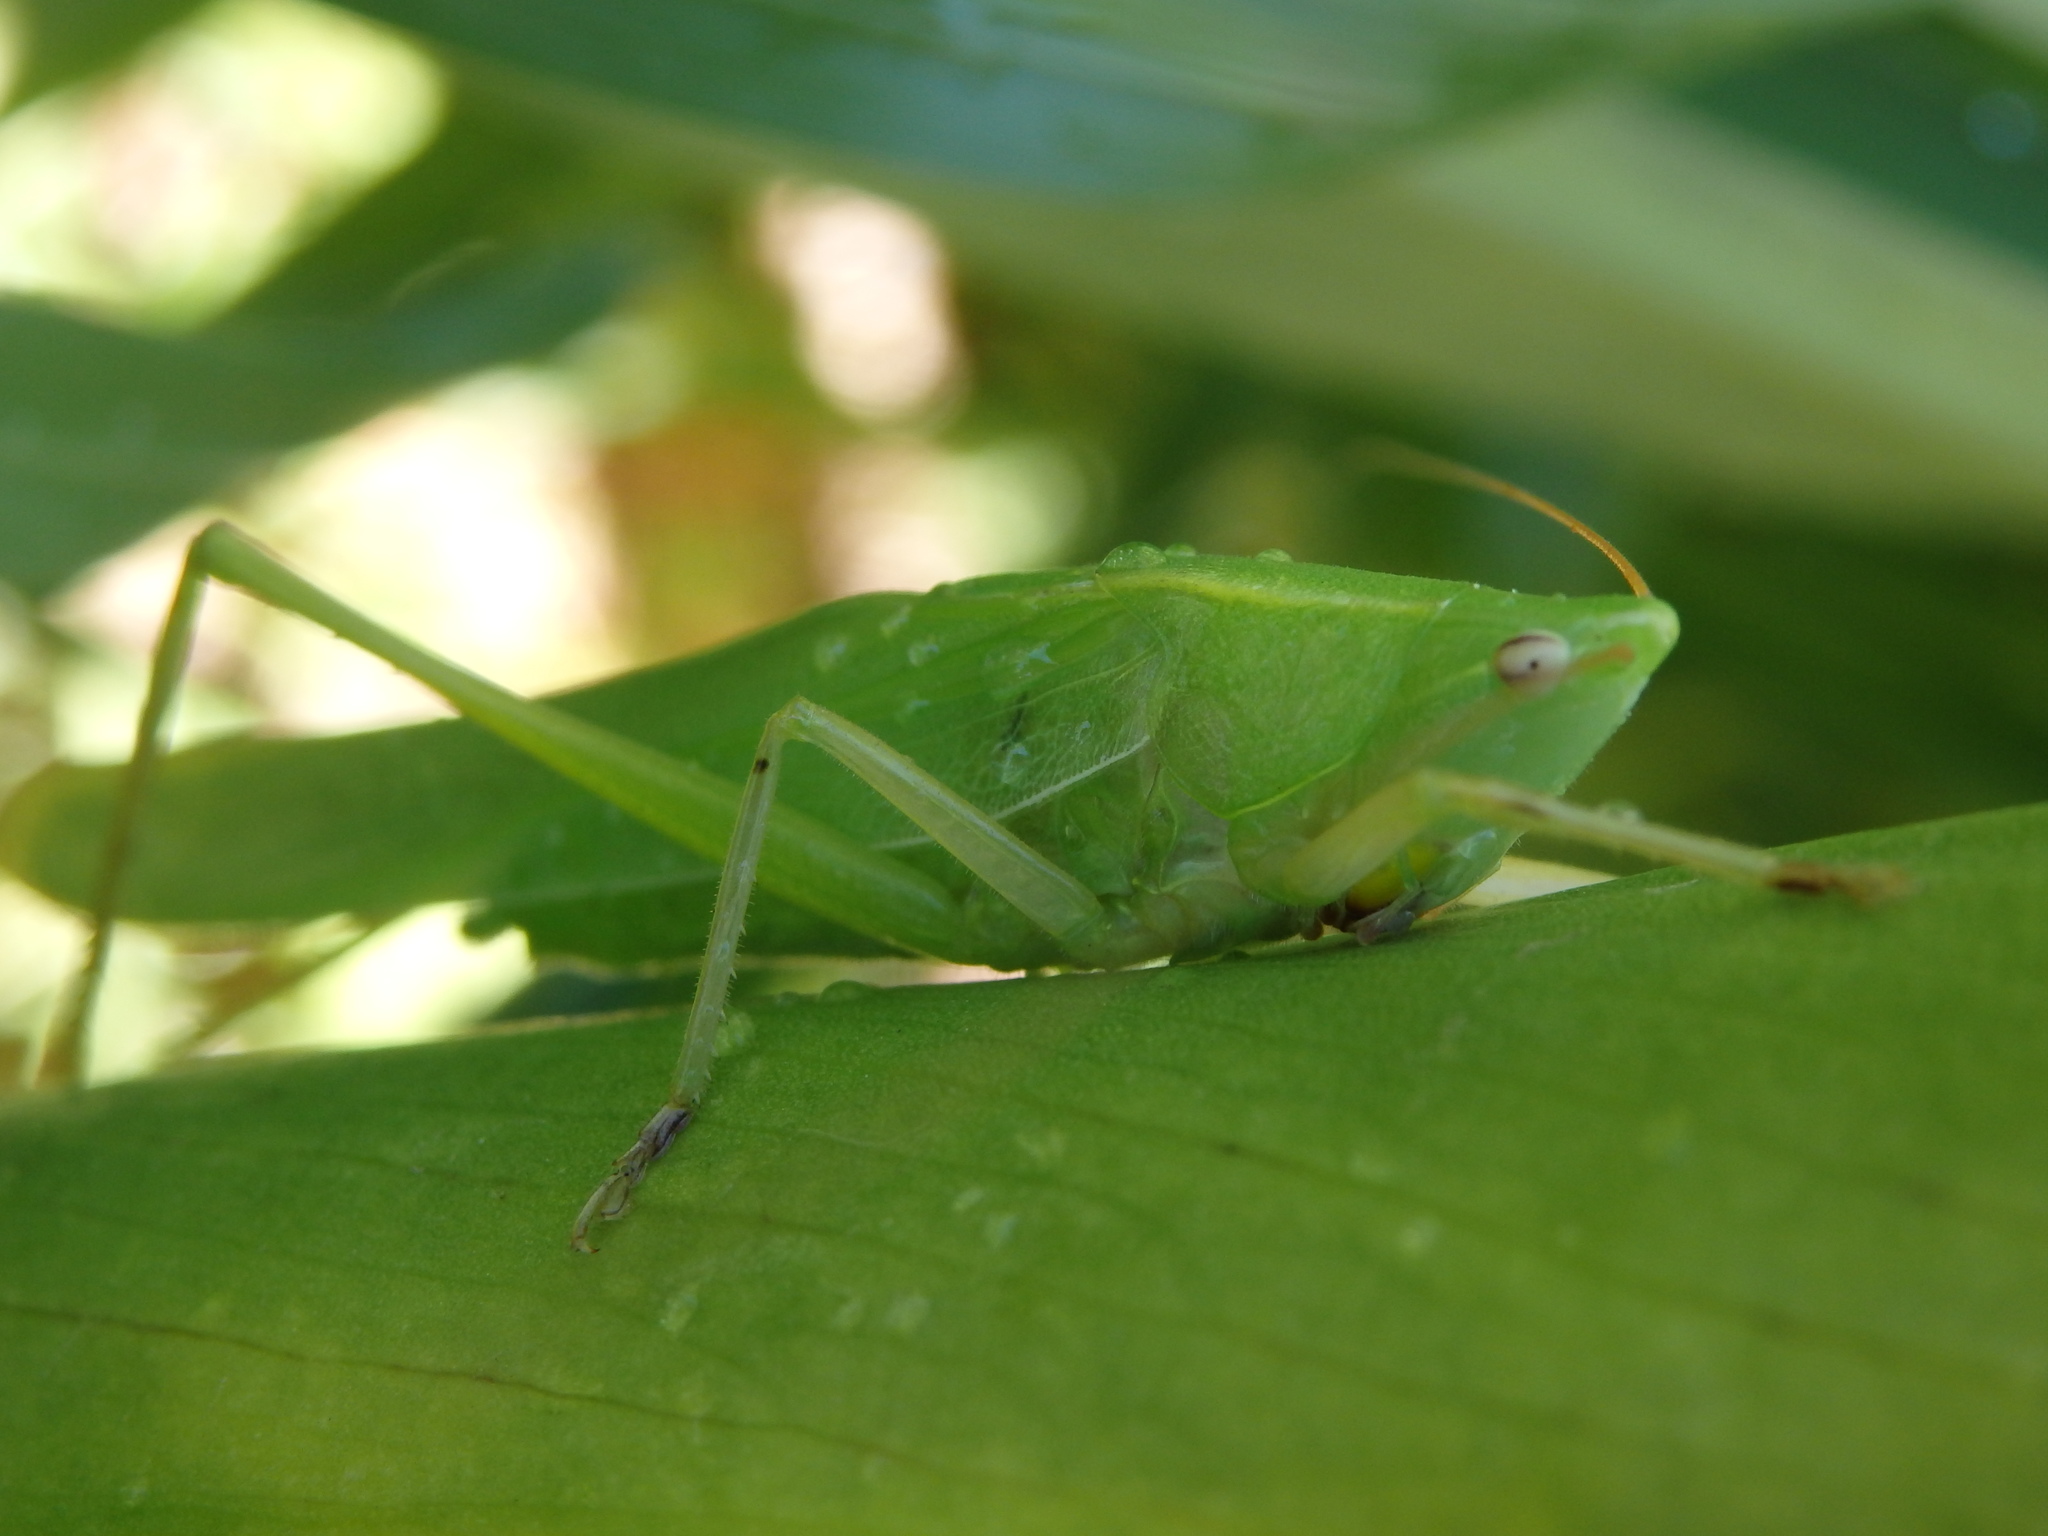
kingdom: Animalia
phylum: Arthropoda
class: Insecta
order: Orthoptera
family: Tettigoniidae
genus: Phaneroptera
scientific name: Phaneroptera nana
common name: Southern sickle bush-cricket
